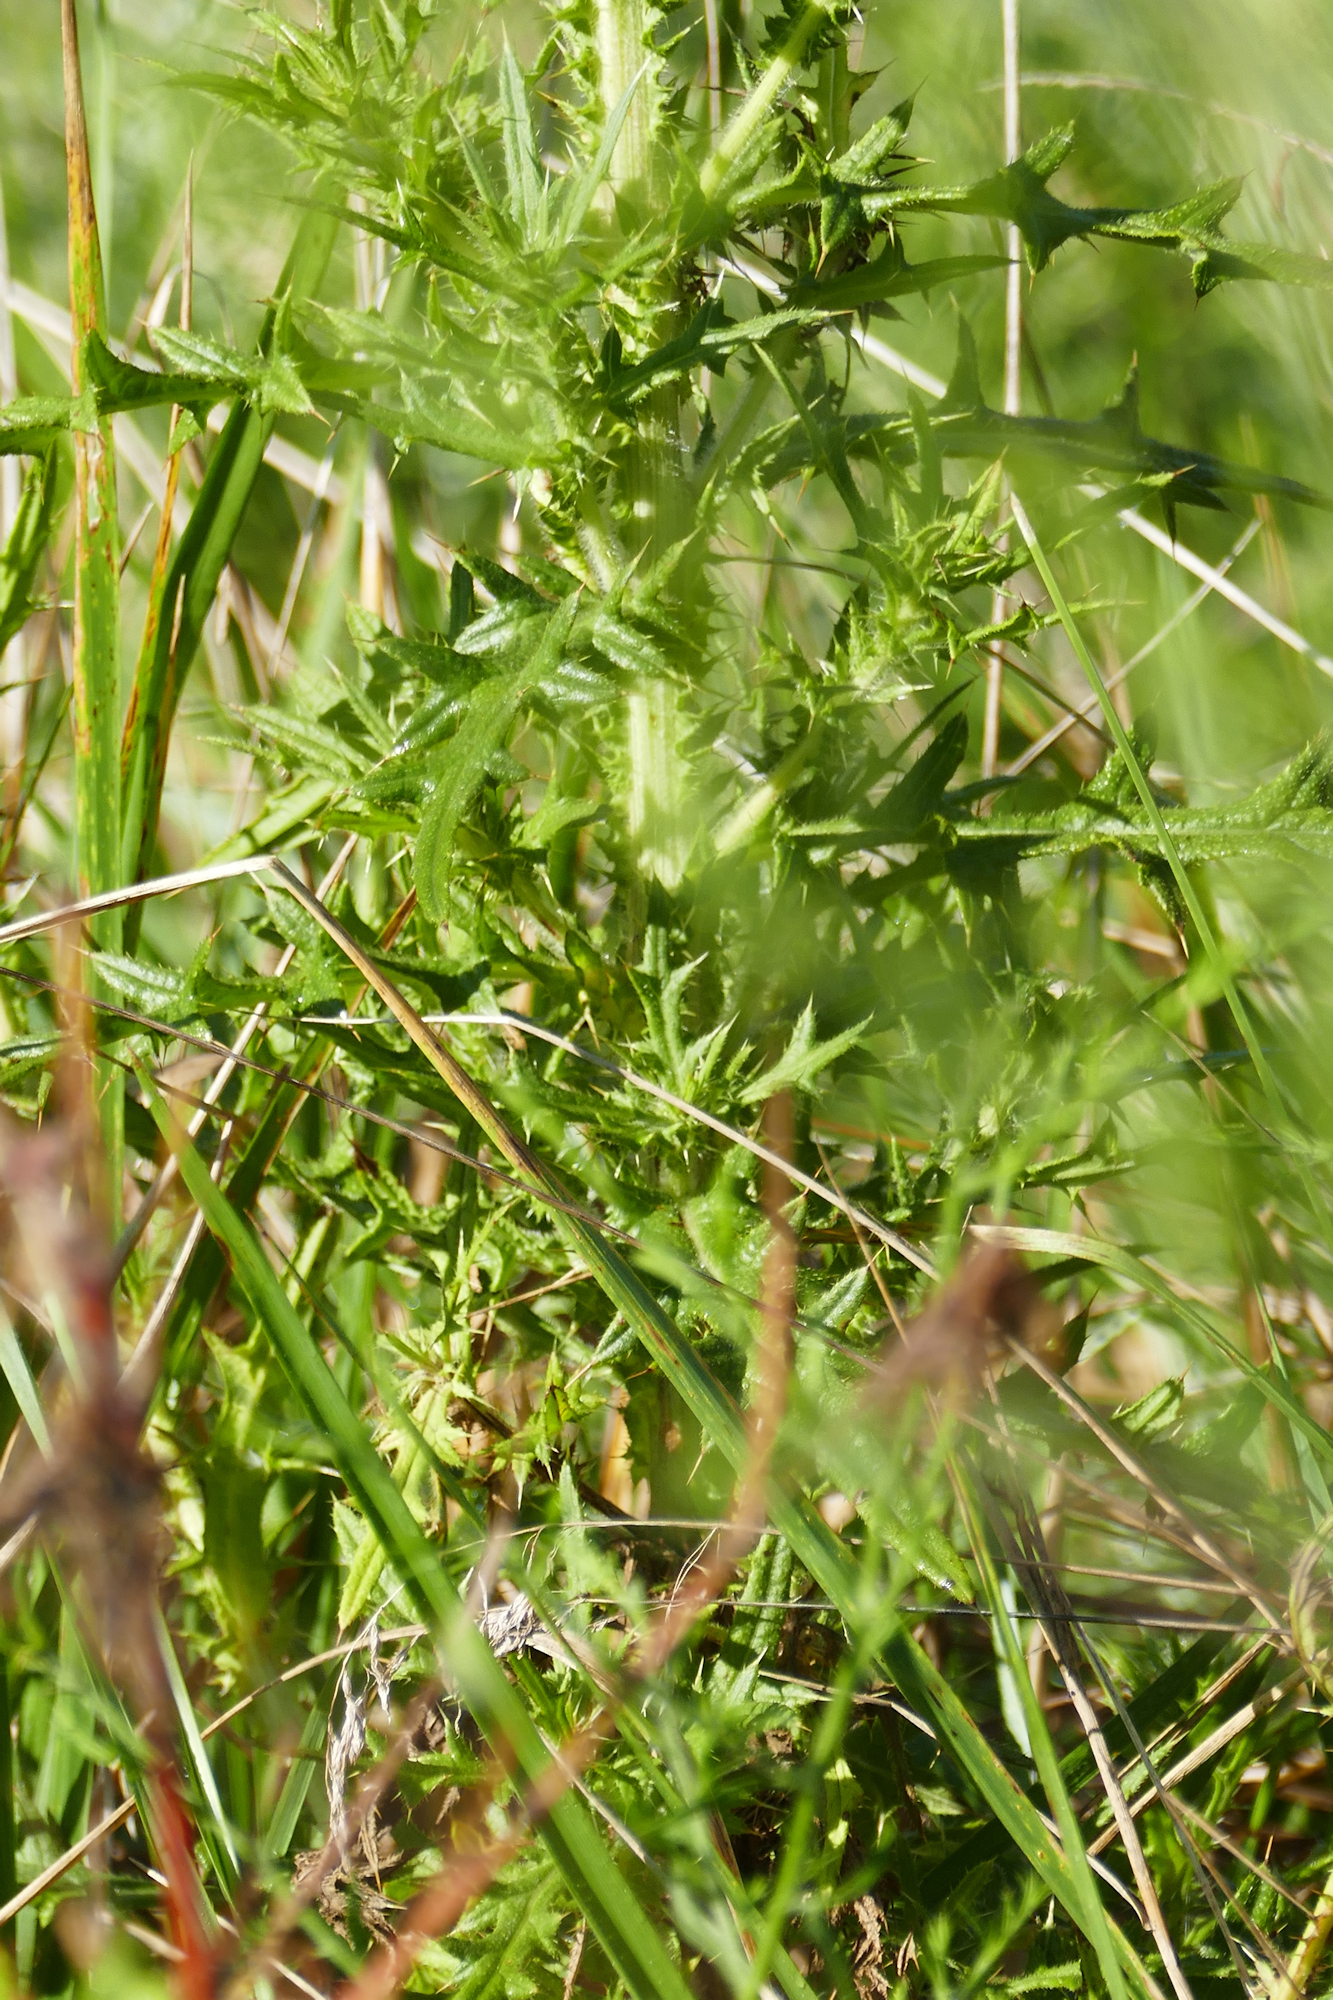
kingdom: Plantae
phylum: Tracheophyta
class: Magnoliopsida
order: Asterales
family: Asteraceae
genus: Cirsium
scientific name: Cirsium vulgare
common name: Bull thistle
